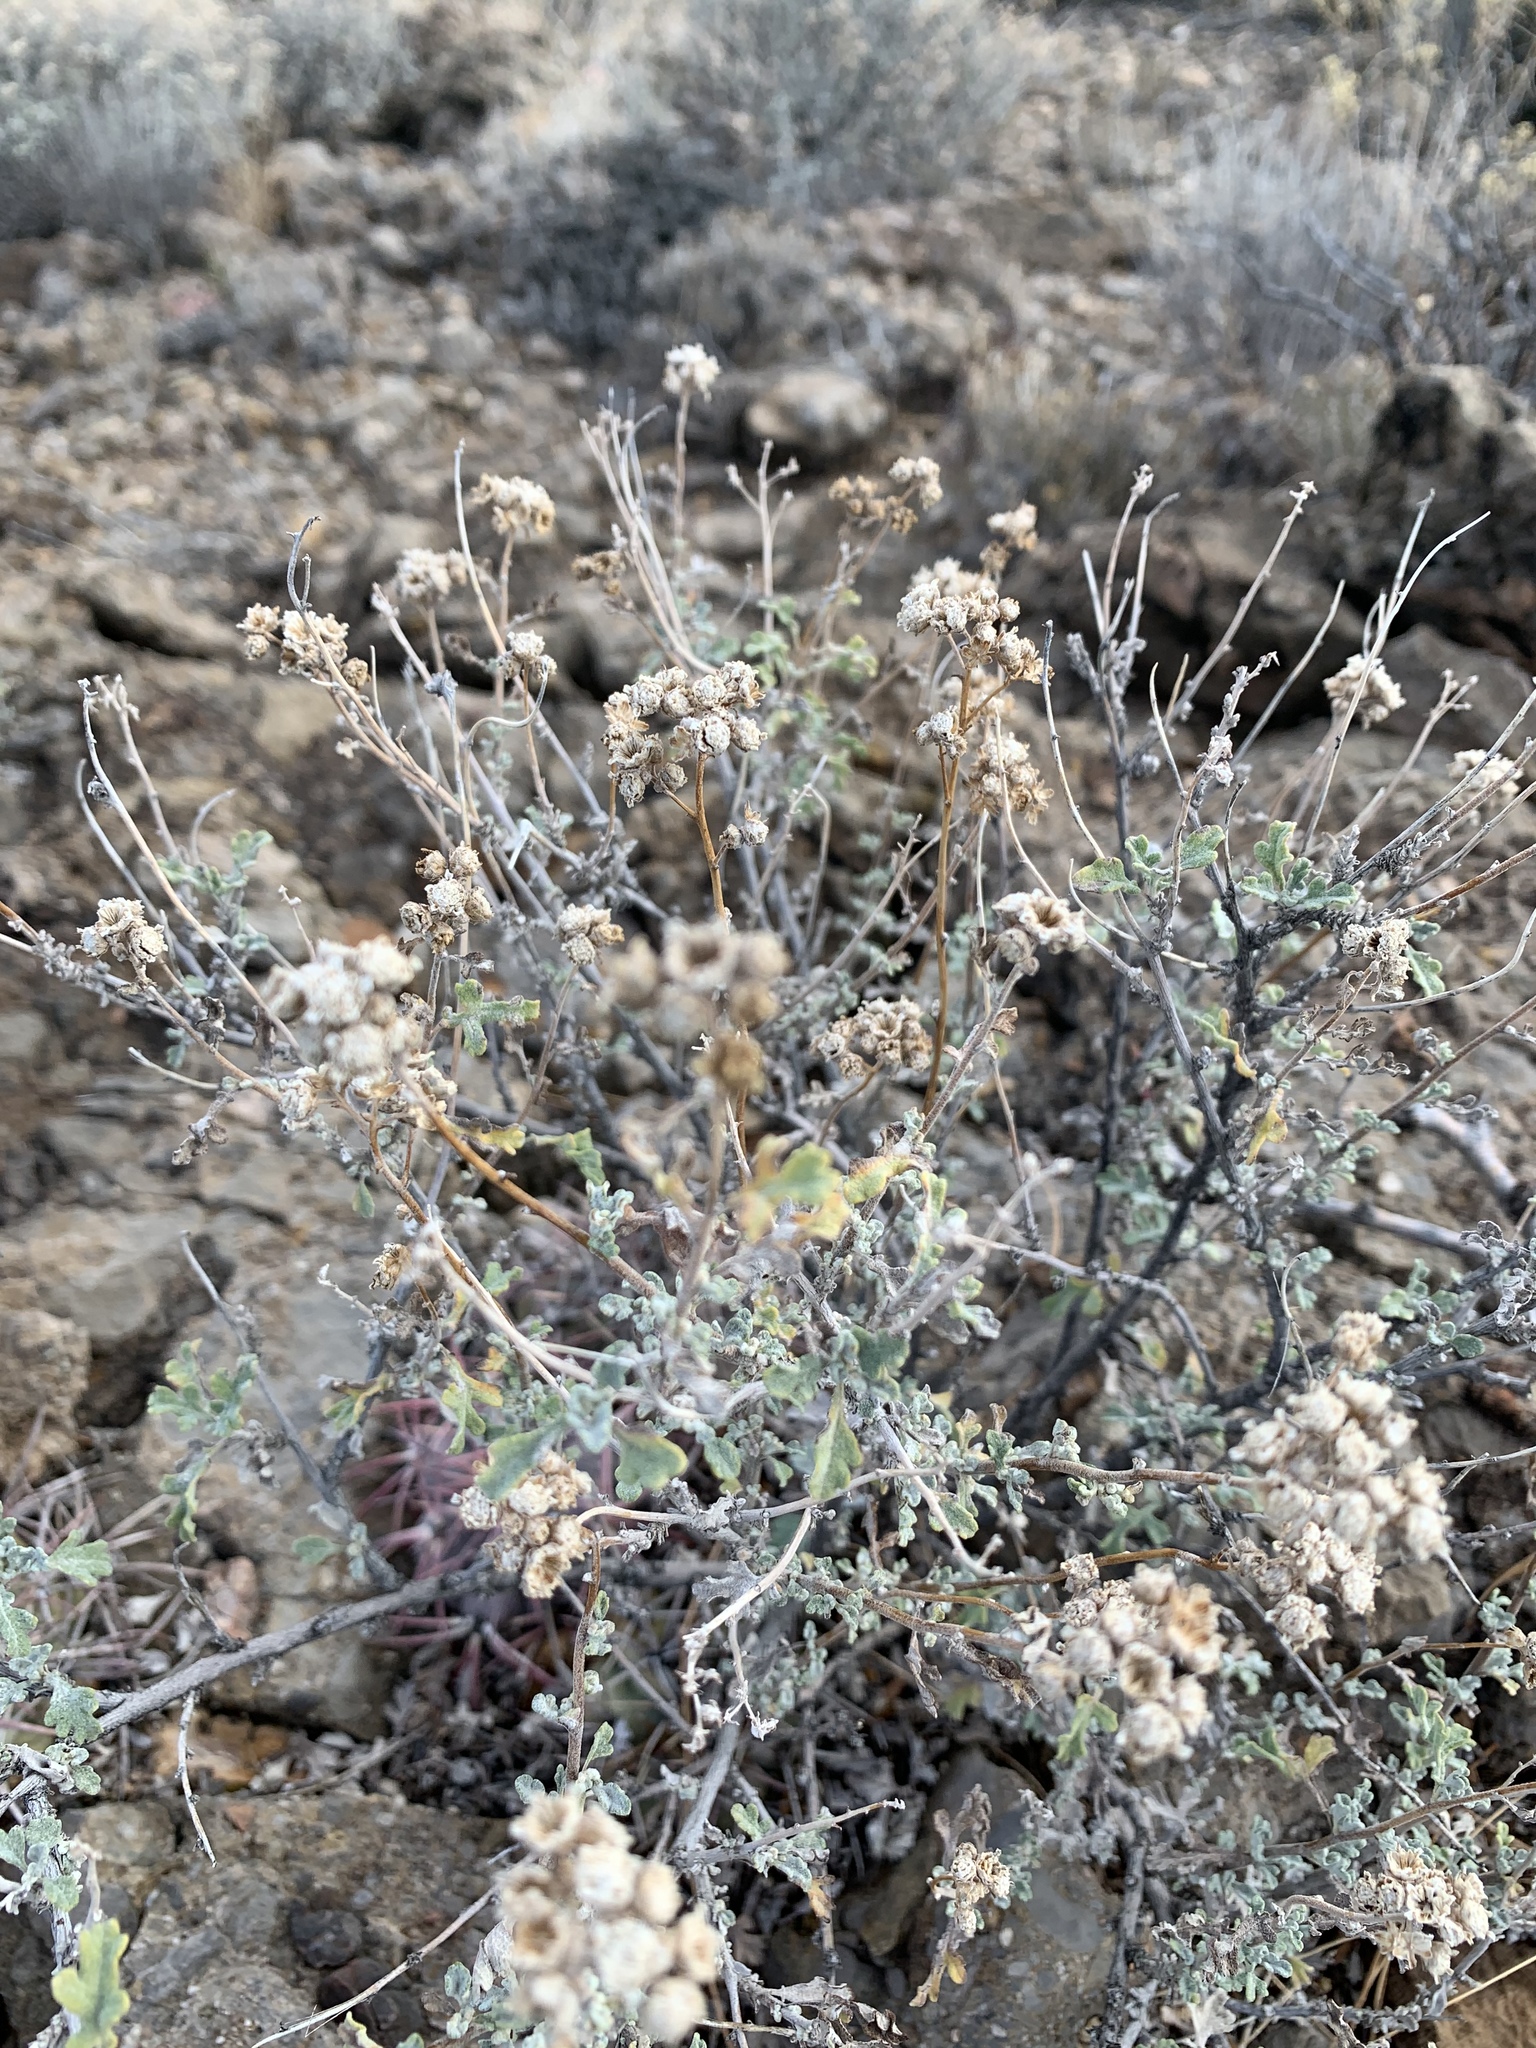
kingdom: Plantae
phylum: Tracheophyta
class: Magnoliopsida
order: Asterales
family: Asteraceae
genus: Parthenium
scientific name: Parthenium incanum
